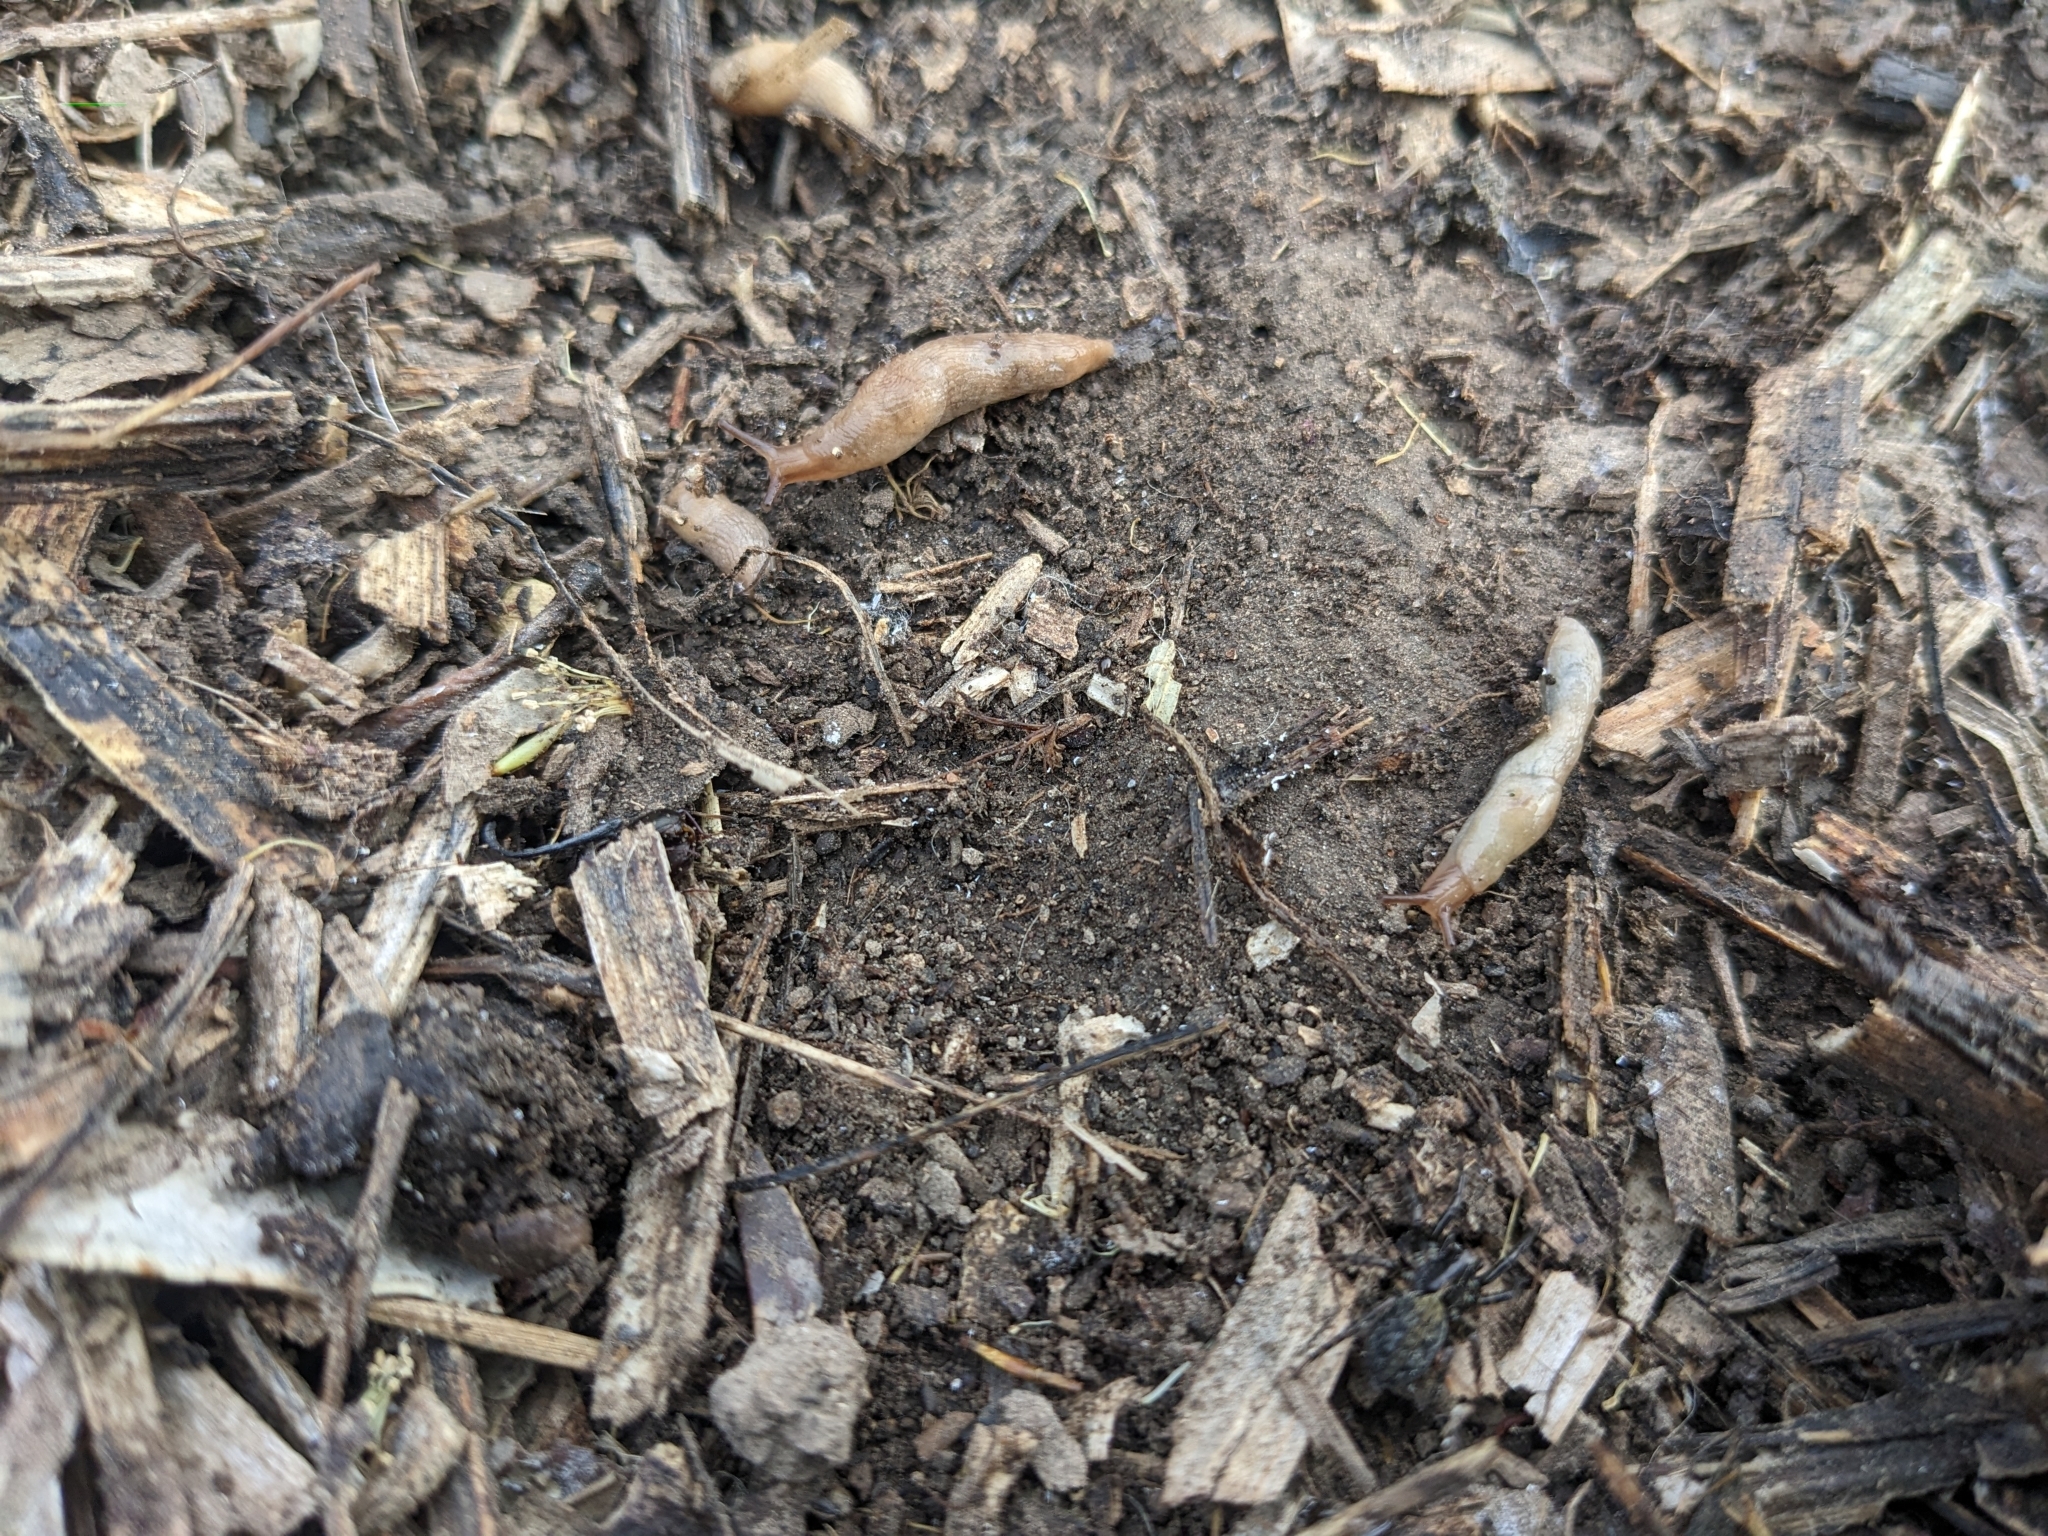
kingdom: Animalia
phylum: Mollusca
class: Gastropoda
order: Stylommatophora
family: Agriolimacidae
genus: Deroceras
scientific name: Deroceras reticulatum
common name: Gray field slug
